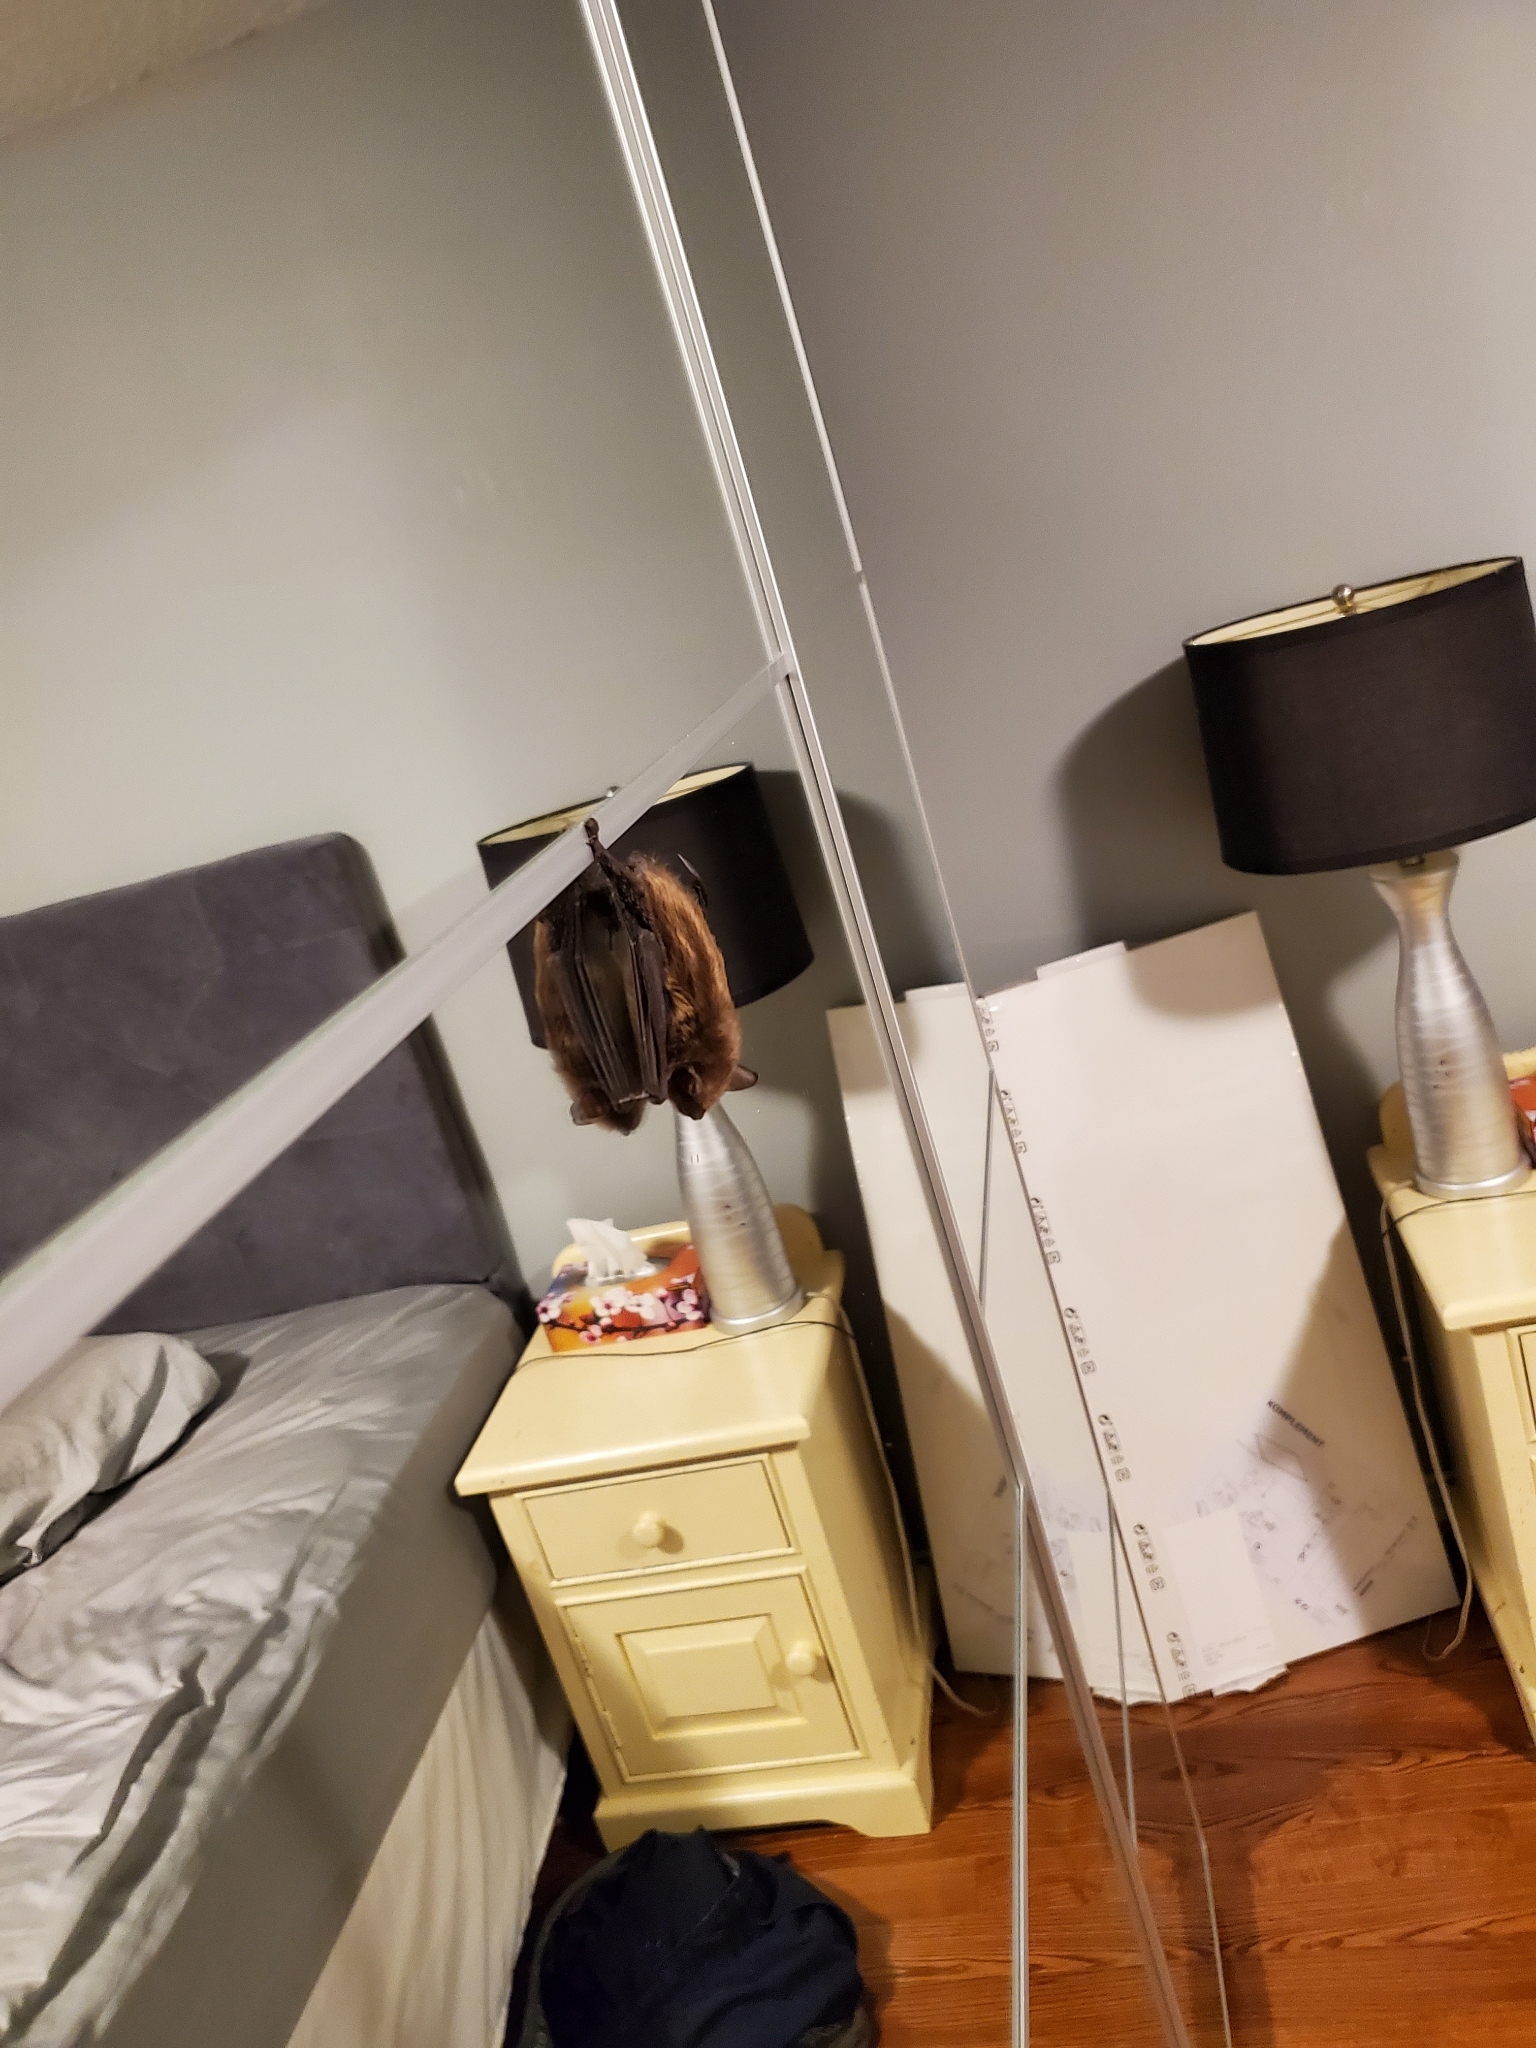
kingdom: Animalia
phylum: Chordata
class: Mammalia
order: Chiroptera
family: Vespertilionidae
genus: Eptesicus
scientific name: Eptesicus fuscus
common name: Big brown bat
